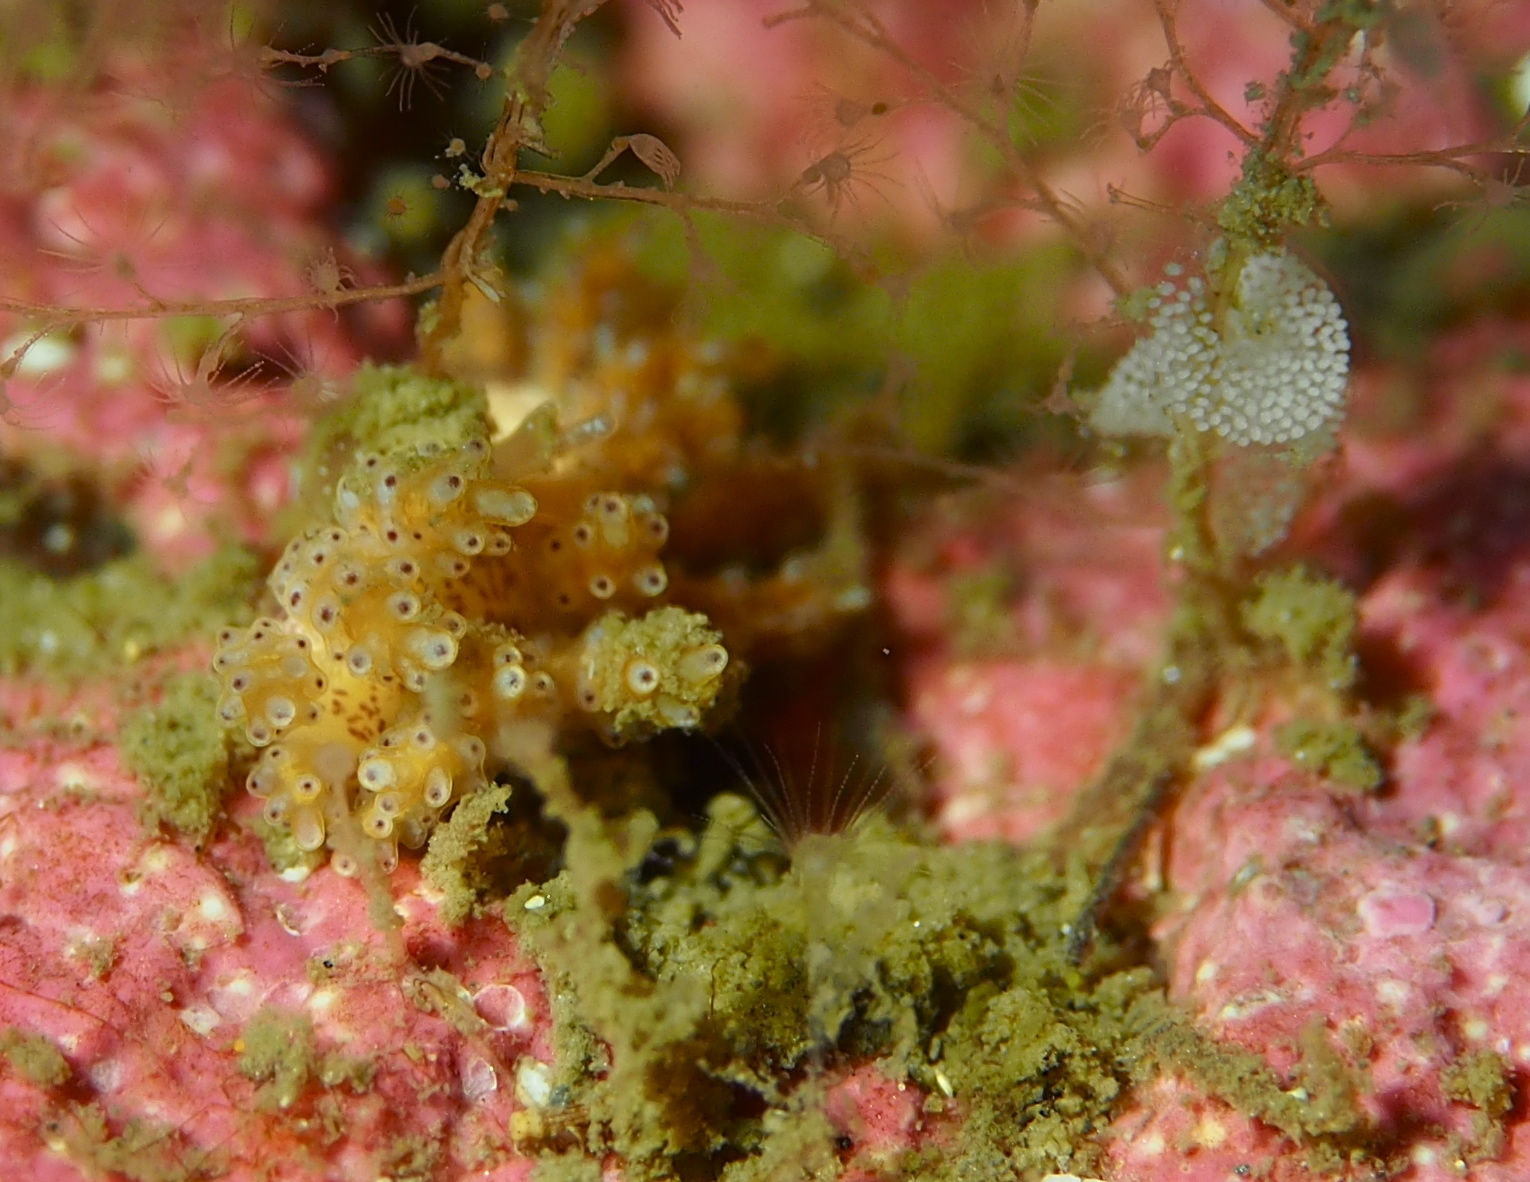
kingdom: Animalia
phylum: Mollusca
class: Gastropoda
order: Nudibranchia
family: Dotidae
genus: Doto
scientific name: Doto dunnei
